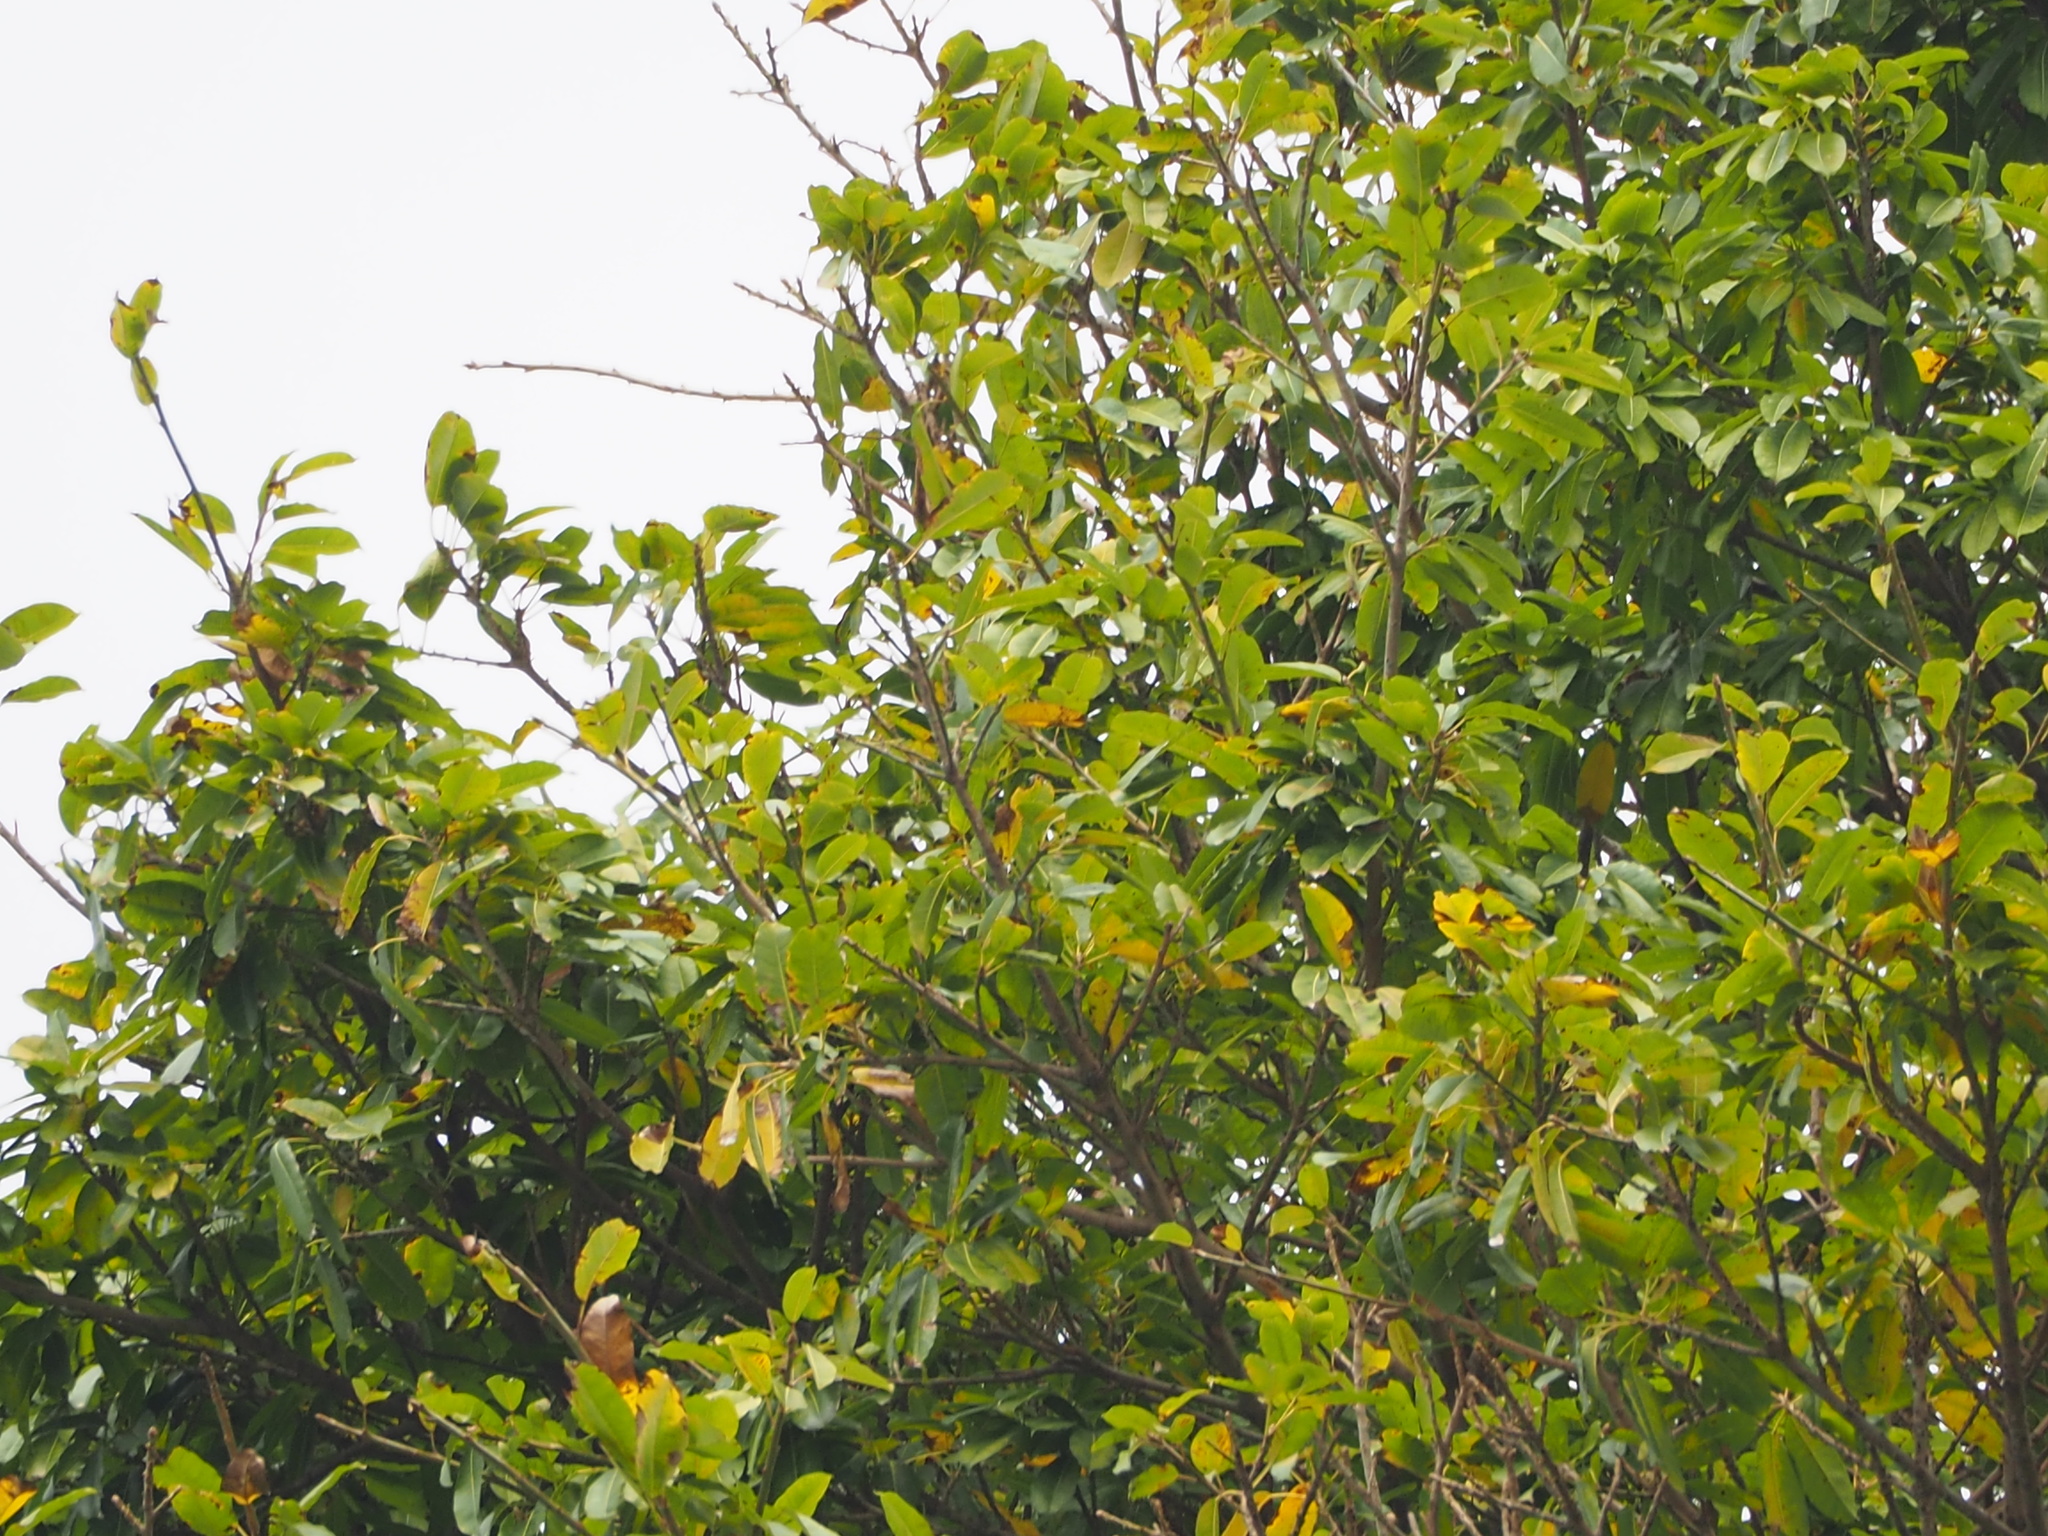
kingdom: Plantae
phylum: Tracheophyta
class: Magnoliopsida
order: Rosales
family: Moraceae
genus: Ficus
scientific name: Ficus subpisocarpa
